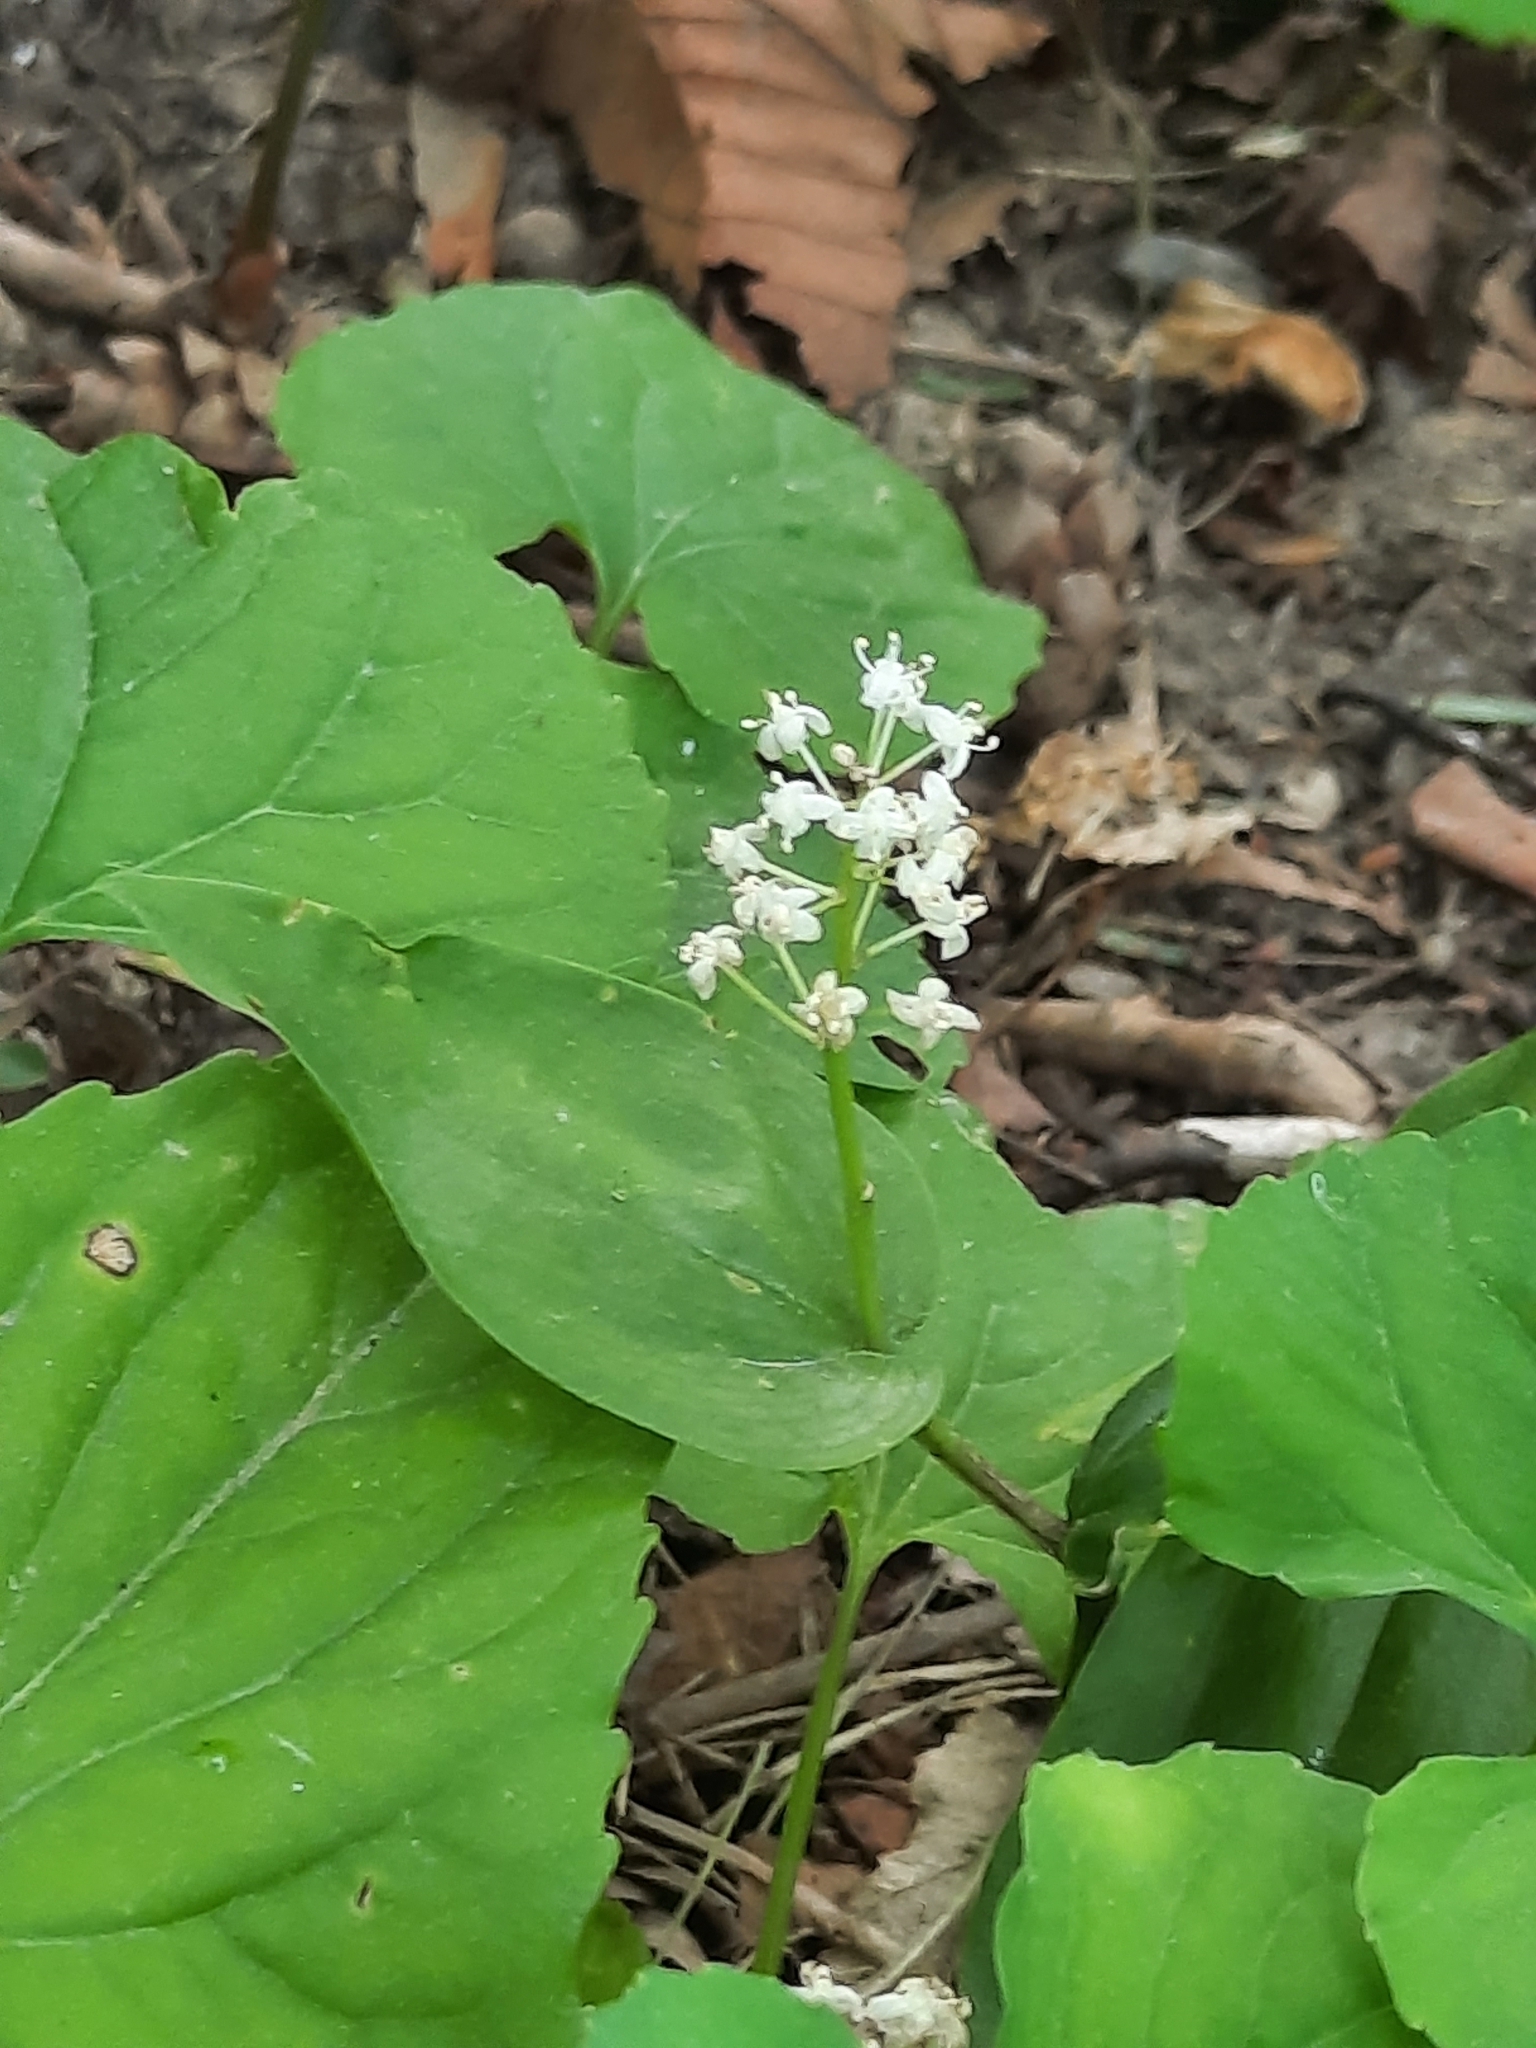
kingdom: Plantae
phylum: Tracheophyta
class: Liliopsida
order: Asparagales
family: Asparagaceae
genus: Maianthemum
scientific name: Maianthemum canadense
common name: False lily-of-the-valley
